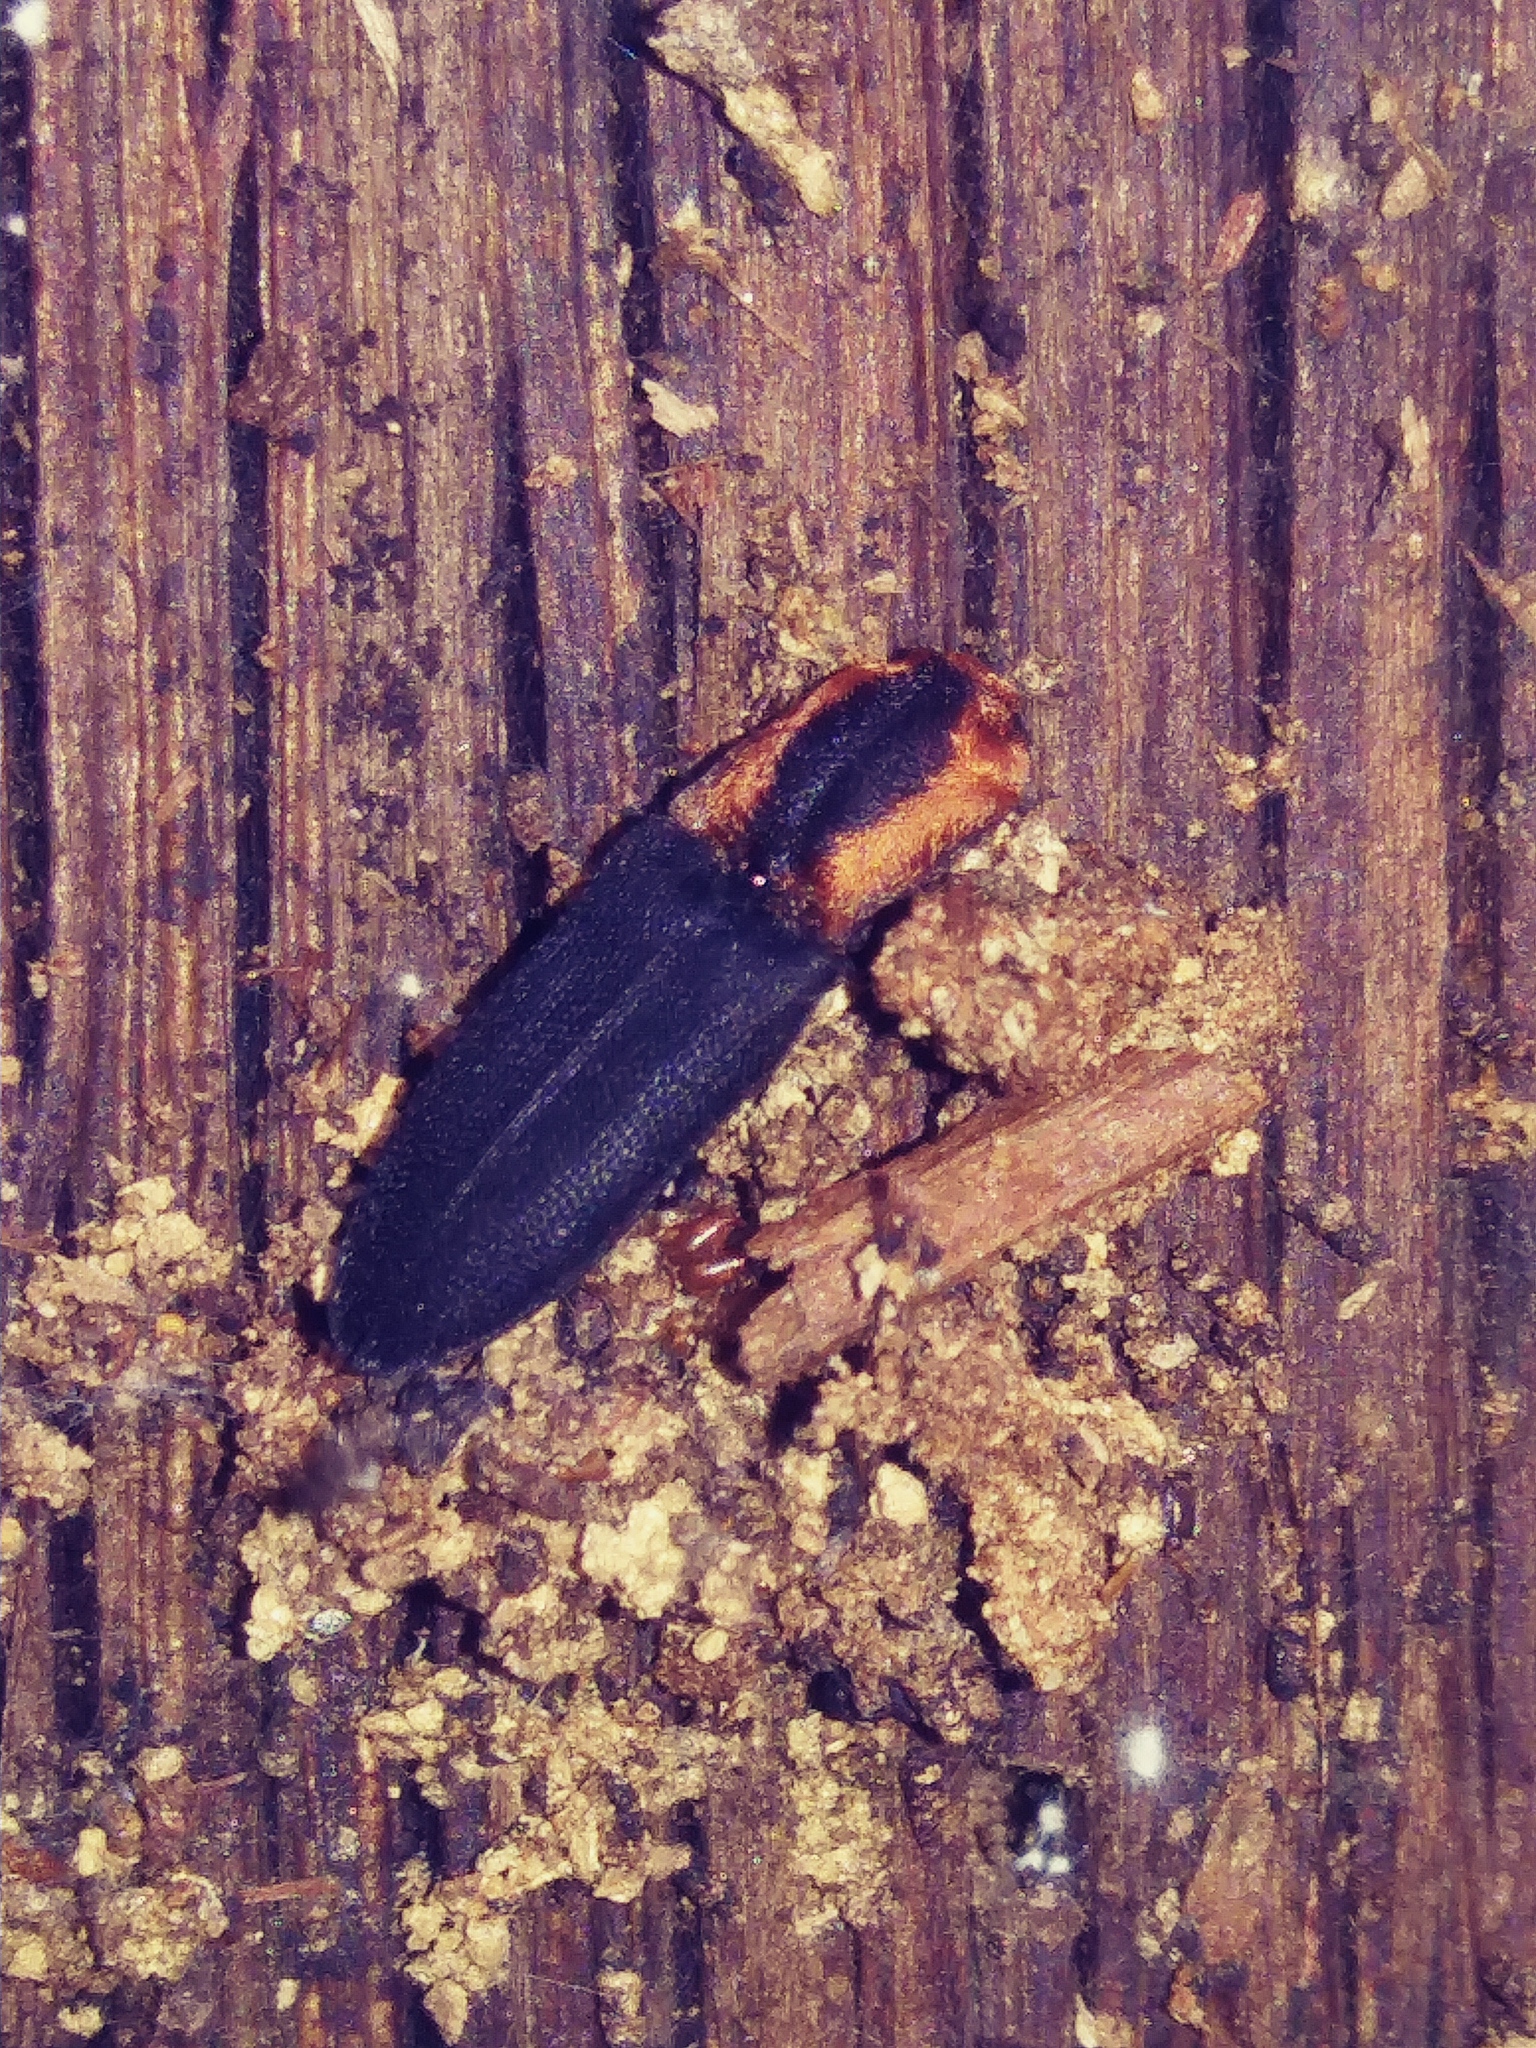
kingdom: Animalia
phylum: Arthropoda
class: Insecta
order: Coleoptera
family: Elateridae
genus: Lacon
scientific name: Lacon discoideus
